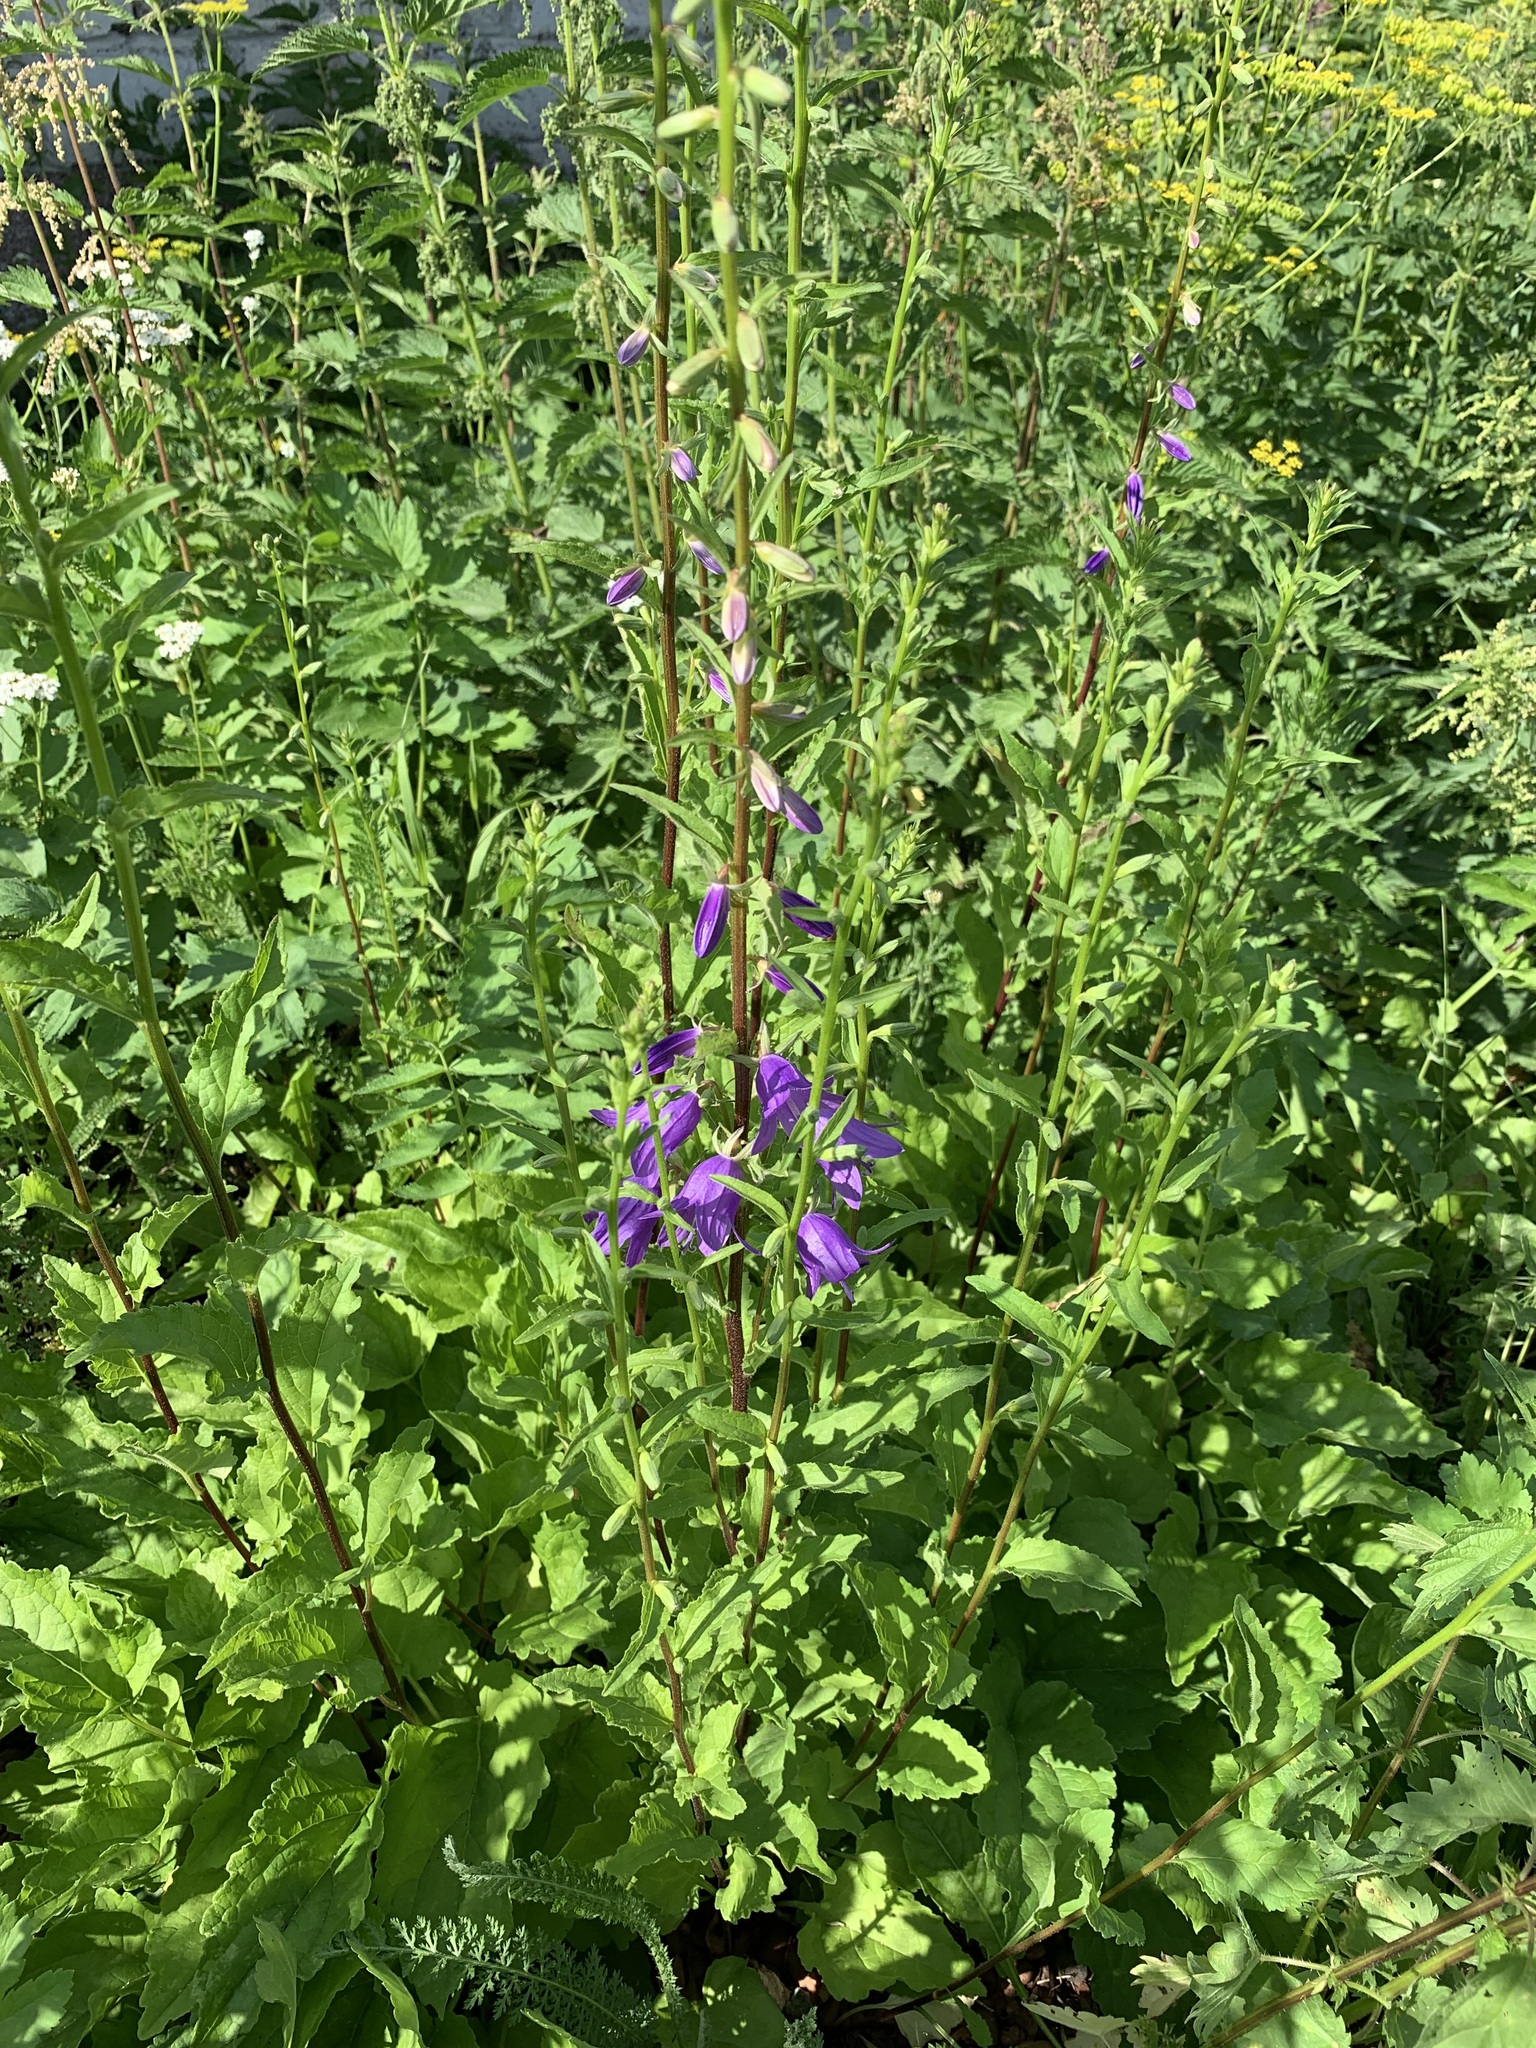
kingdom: Plantae
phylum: Tracheophyta
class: Magnoliopsida
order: Asterales
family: Campanulaceae
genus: Campanula
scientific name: Campanula rapunculoides
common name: Creeping bellflower
